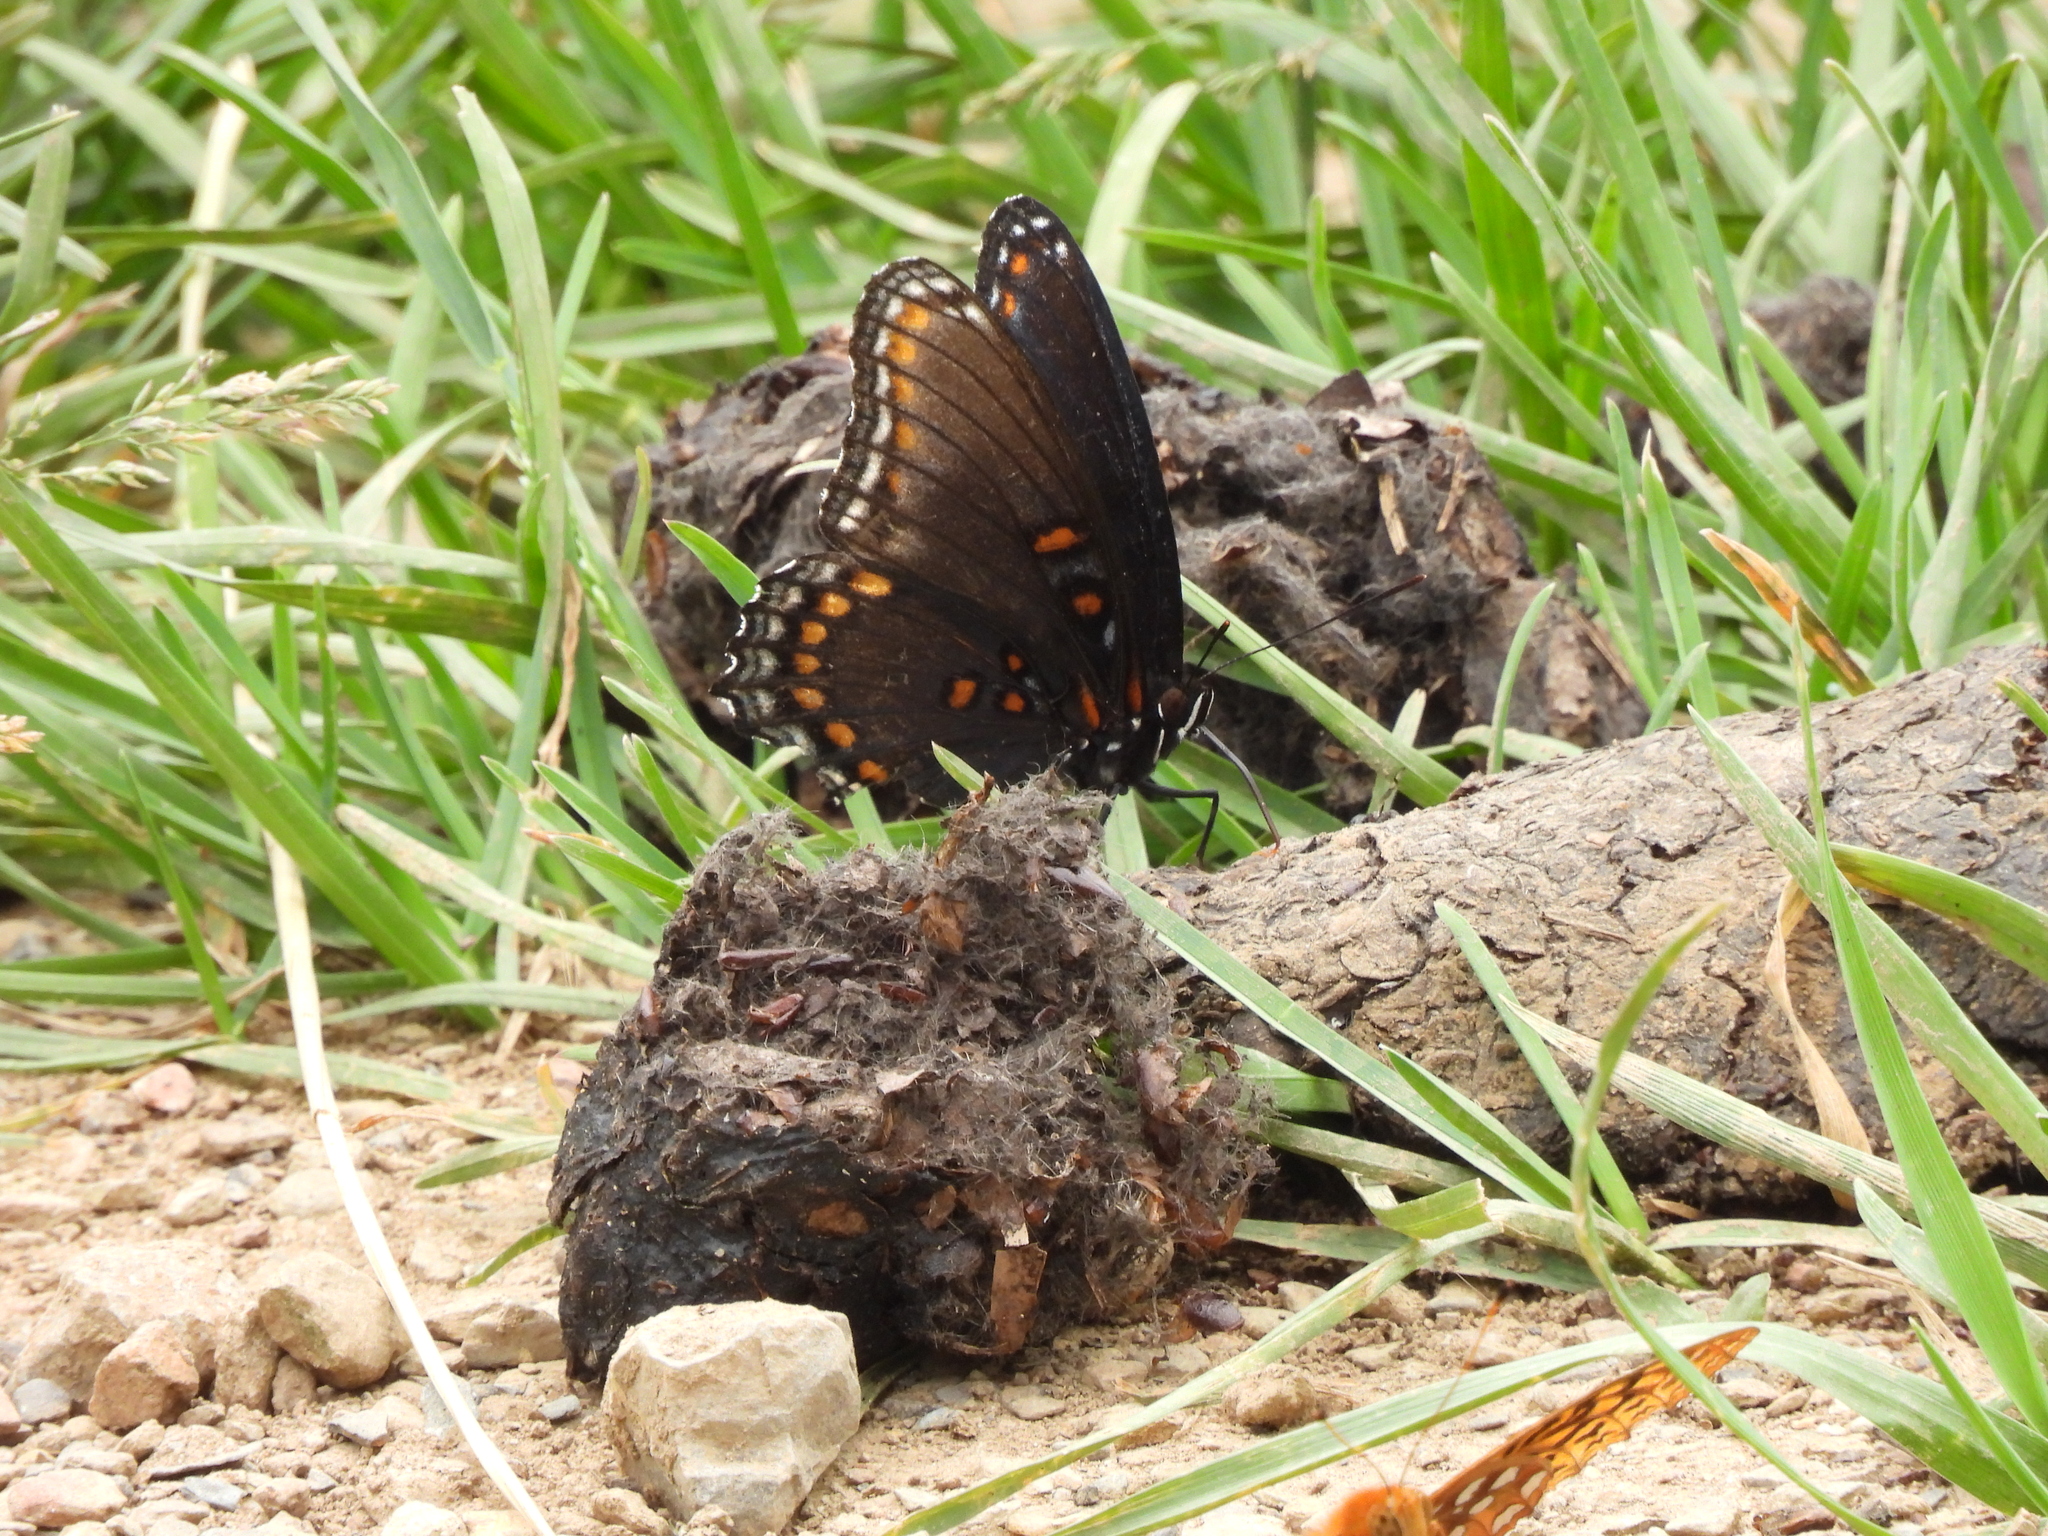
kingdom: Animalia
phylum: Arthropoda
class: Insecta
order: Lepidoptera
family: Nymphalidae
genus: Limenitis
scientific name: Limenitis arthemis
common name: Red-spotted admiral
